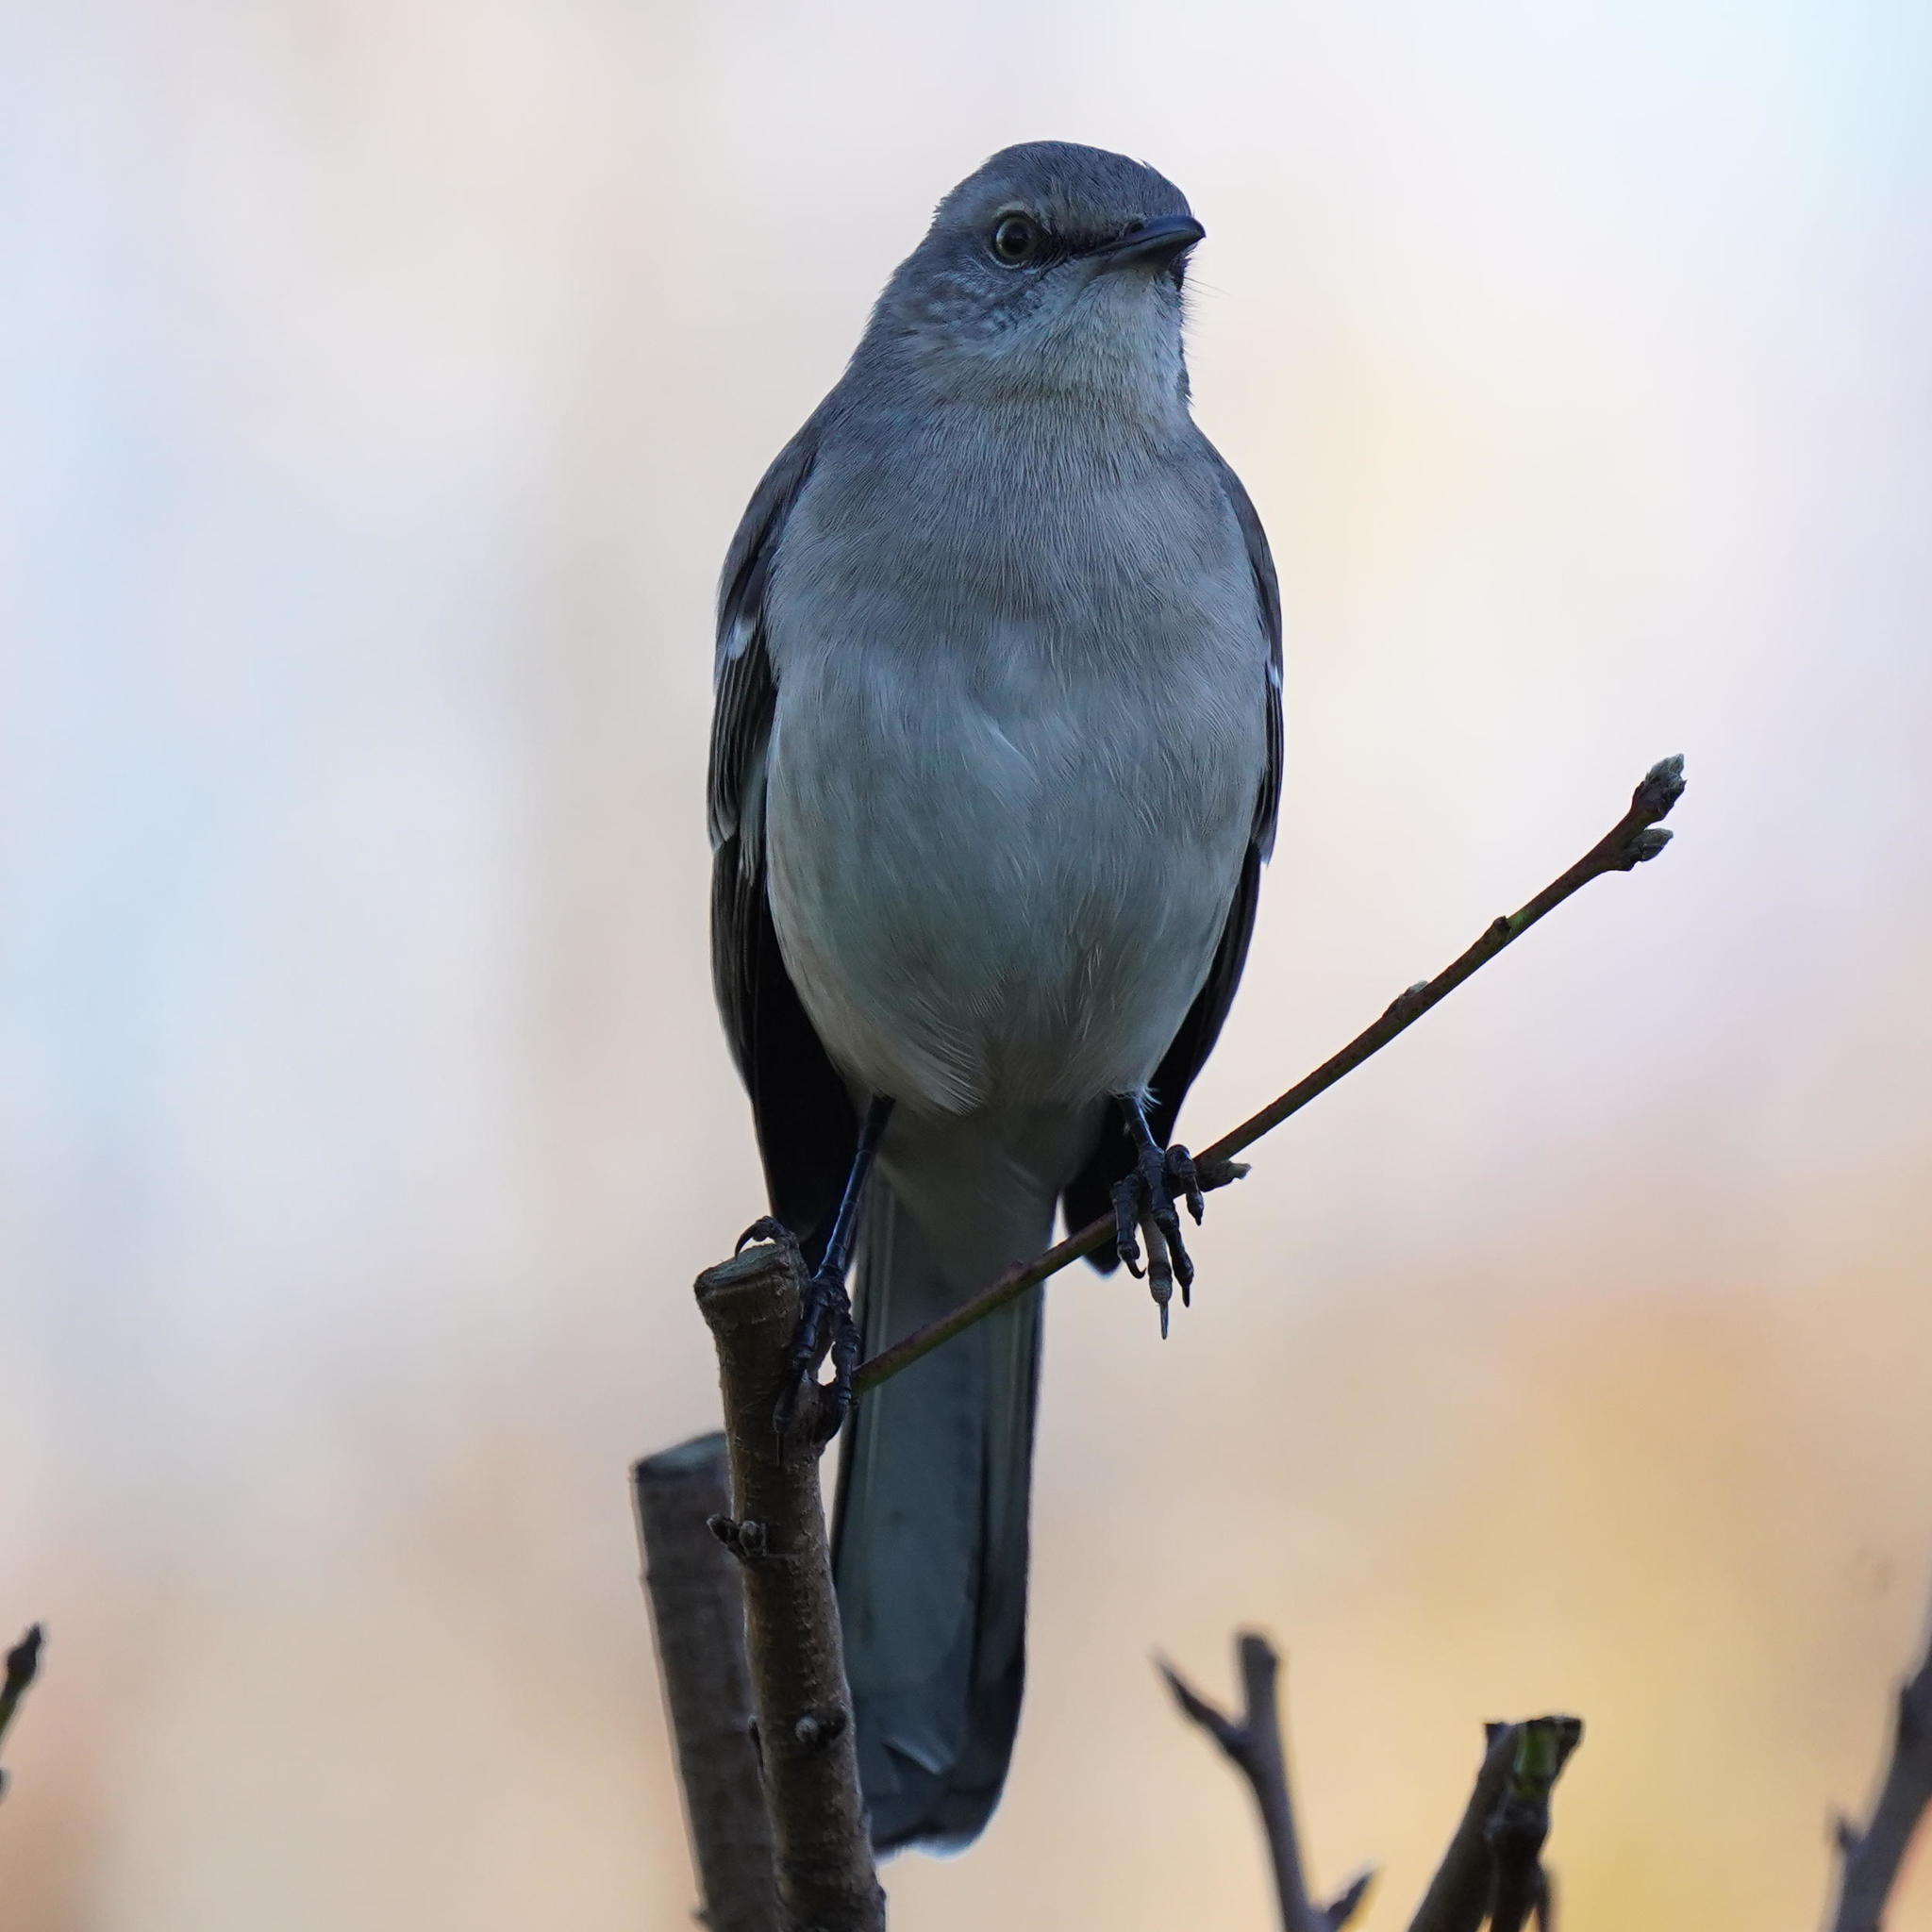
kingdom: Animalia
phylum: Chordata
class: Aves
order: Passeriformes
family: Mimidae
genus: Mimus
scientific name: Mimus polyglottos
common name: Northern mockingbird
